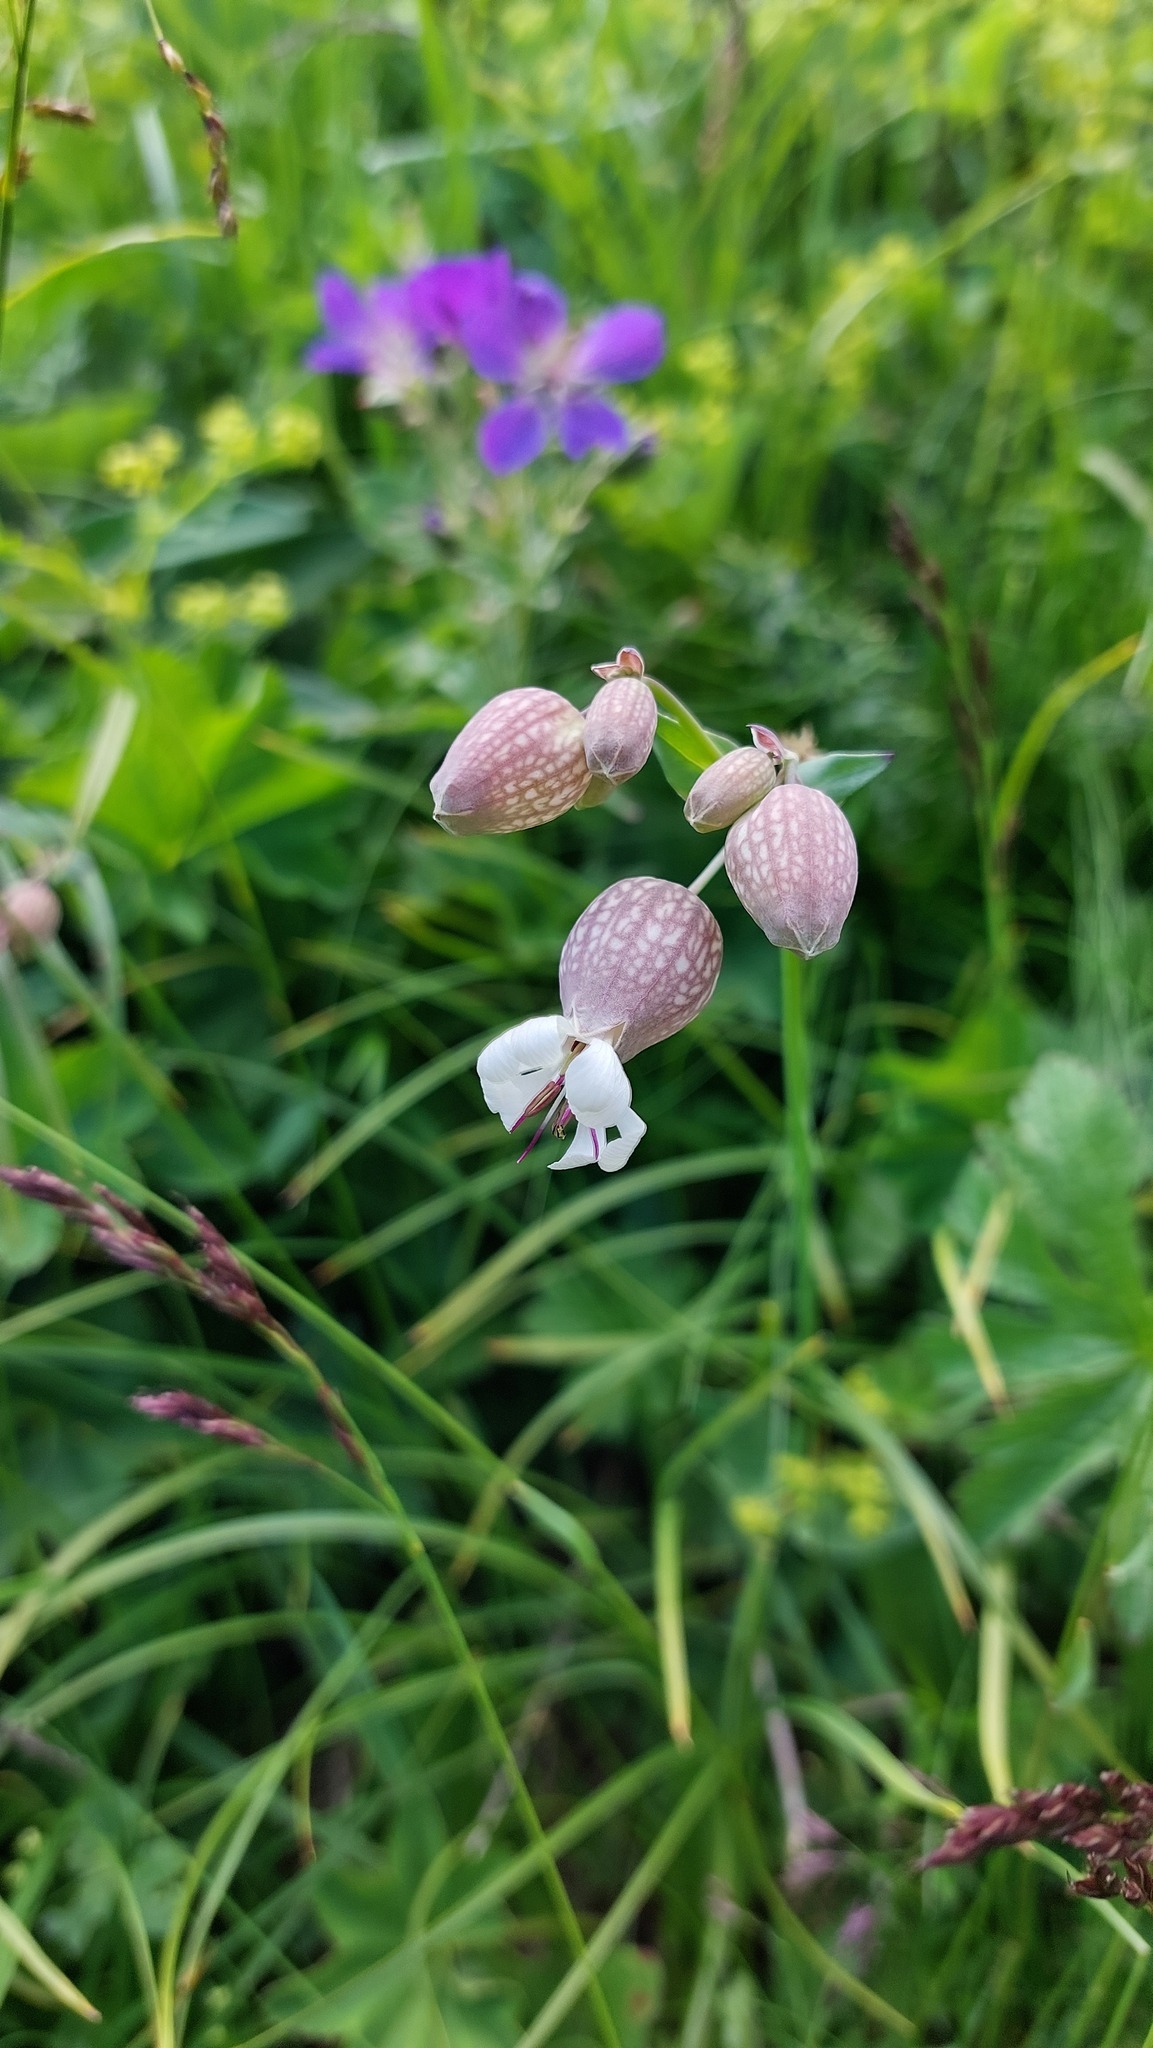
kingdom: Plantae
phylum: Tracheophyta
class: Magnoliopsida
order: Caryophyllales
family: Caryophyllaceae
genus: Silene
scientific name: Silene vulgaris
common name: Bladder campion
